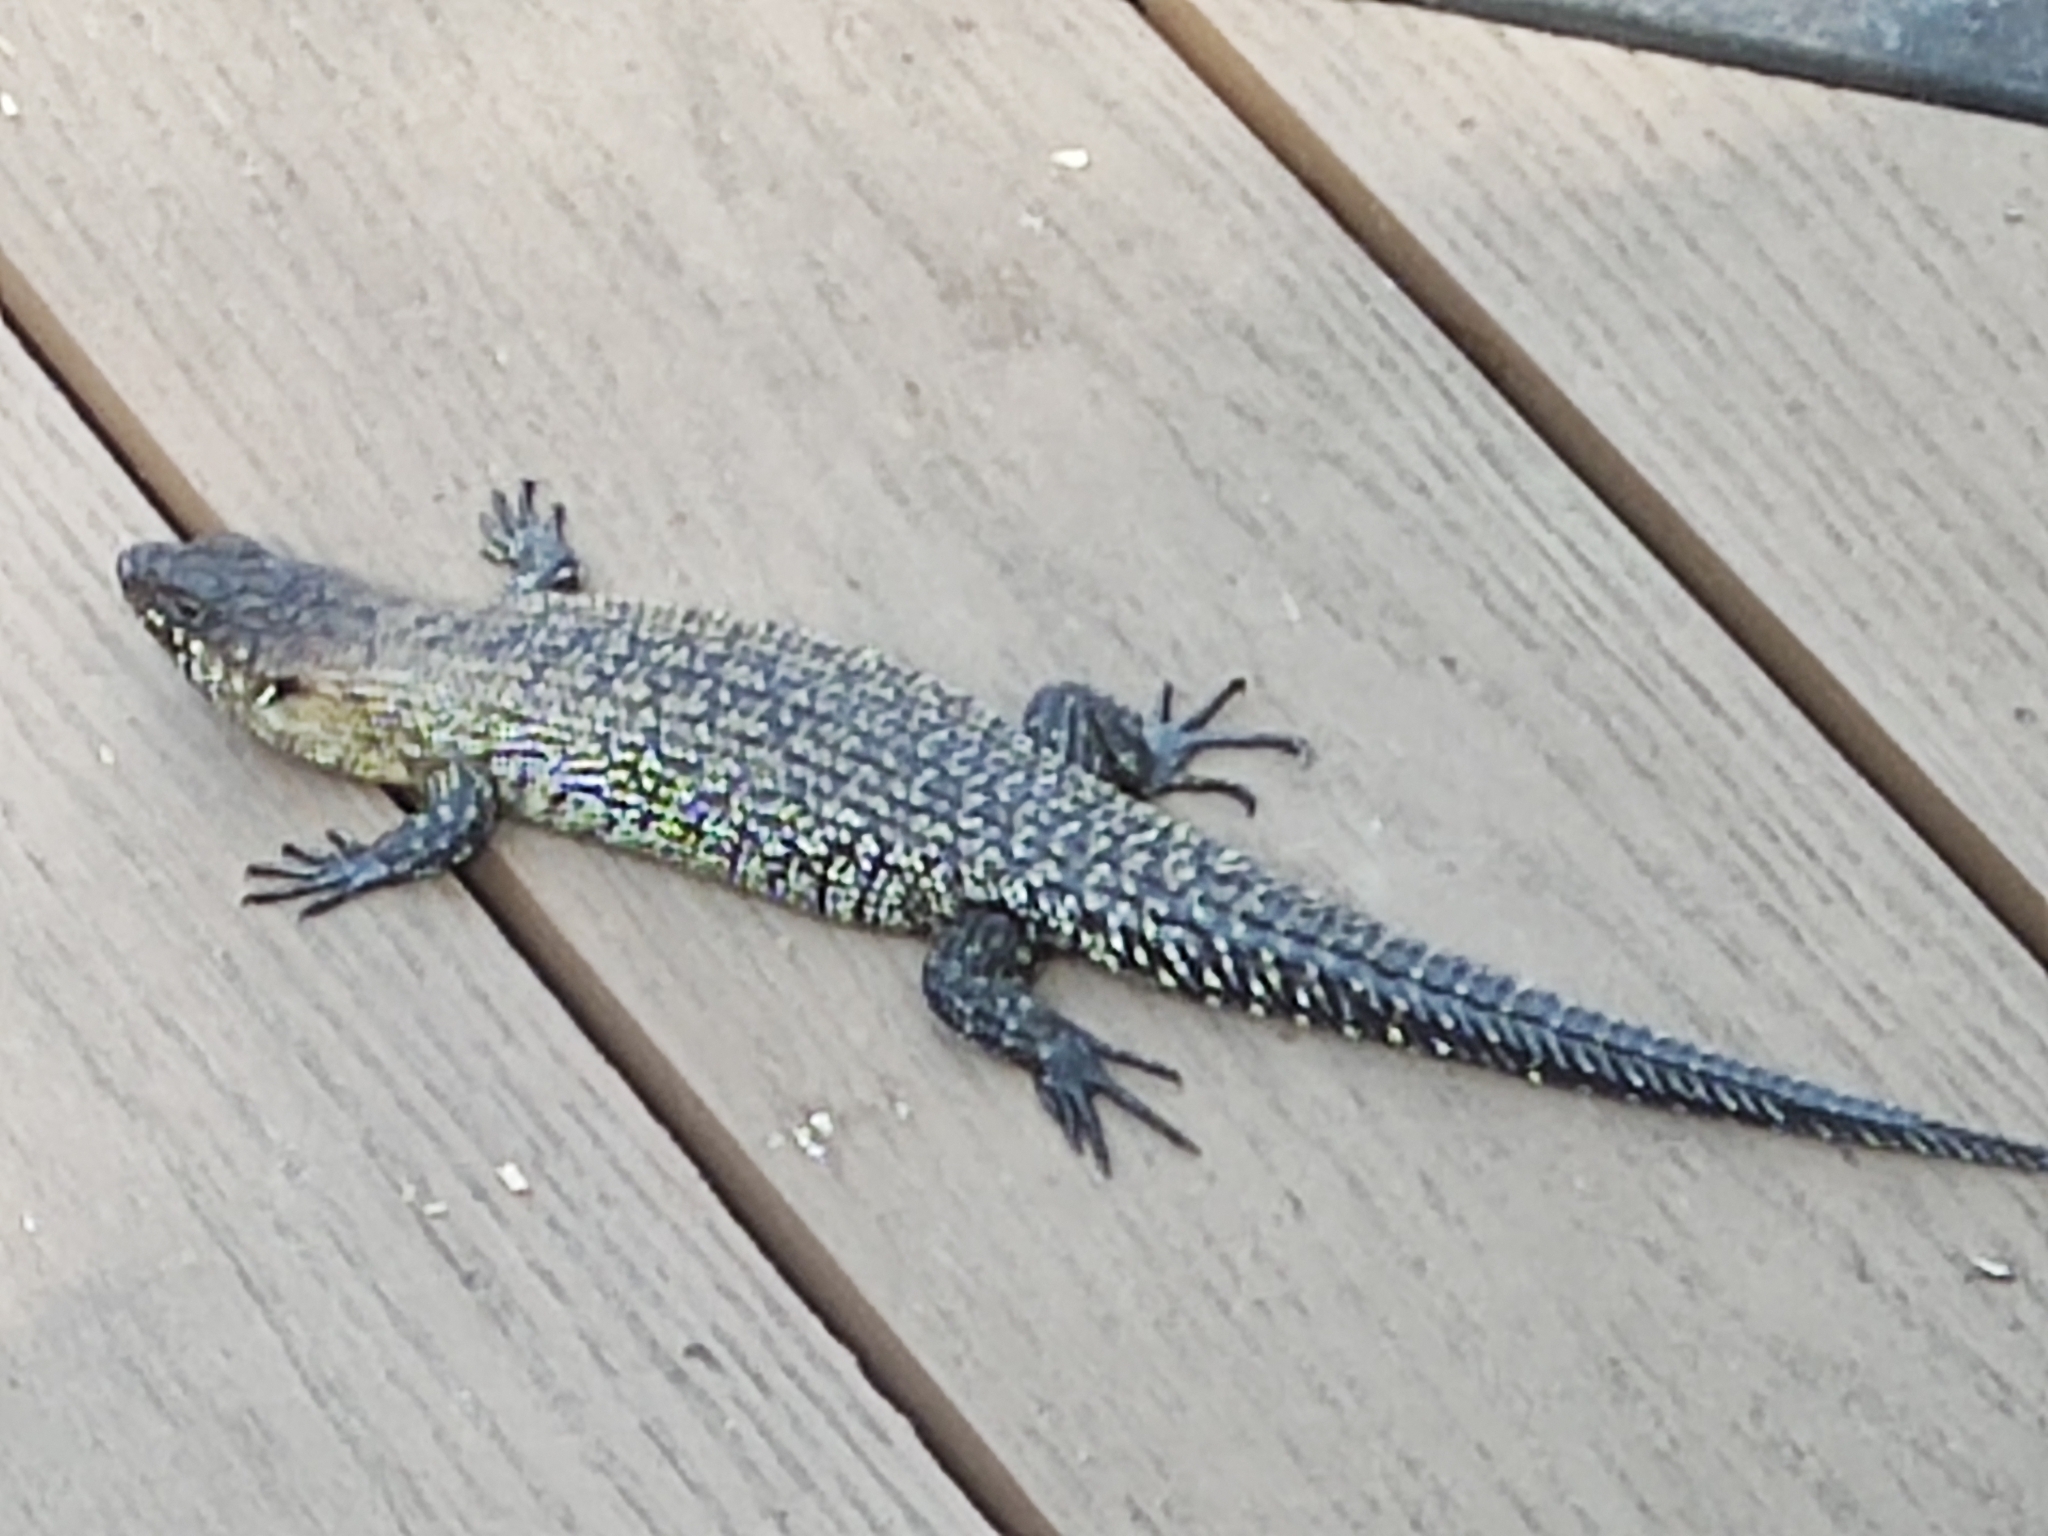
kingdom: Animalia
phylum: Chordata
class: Squamata
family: Scincidae
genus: Egernia
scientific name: Egernia cunninghami
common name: Cunningham's skink
